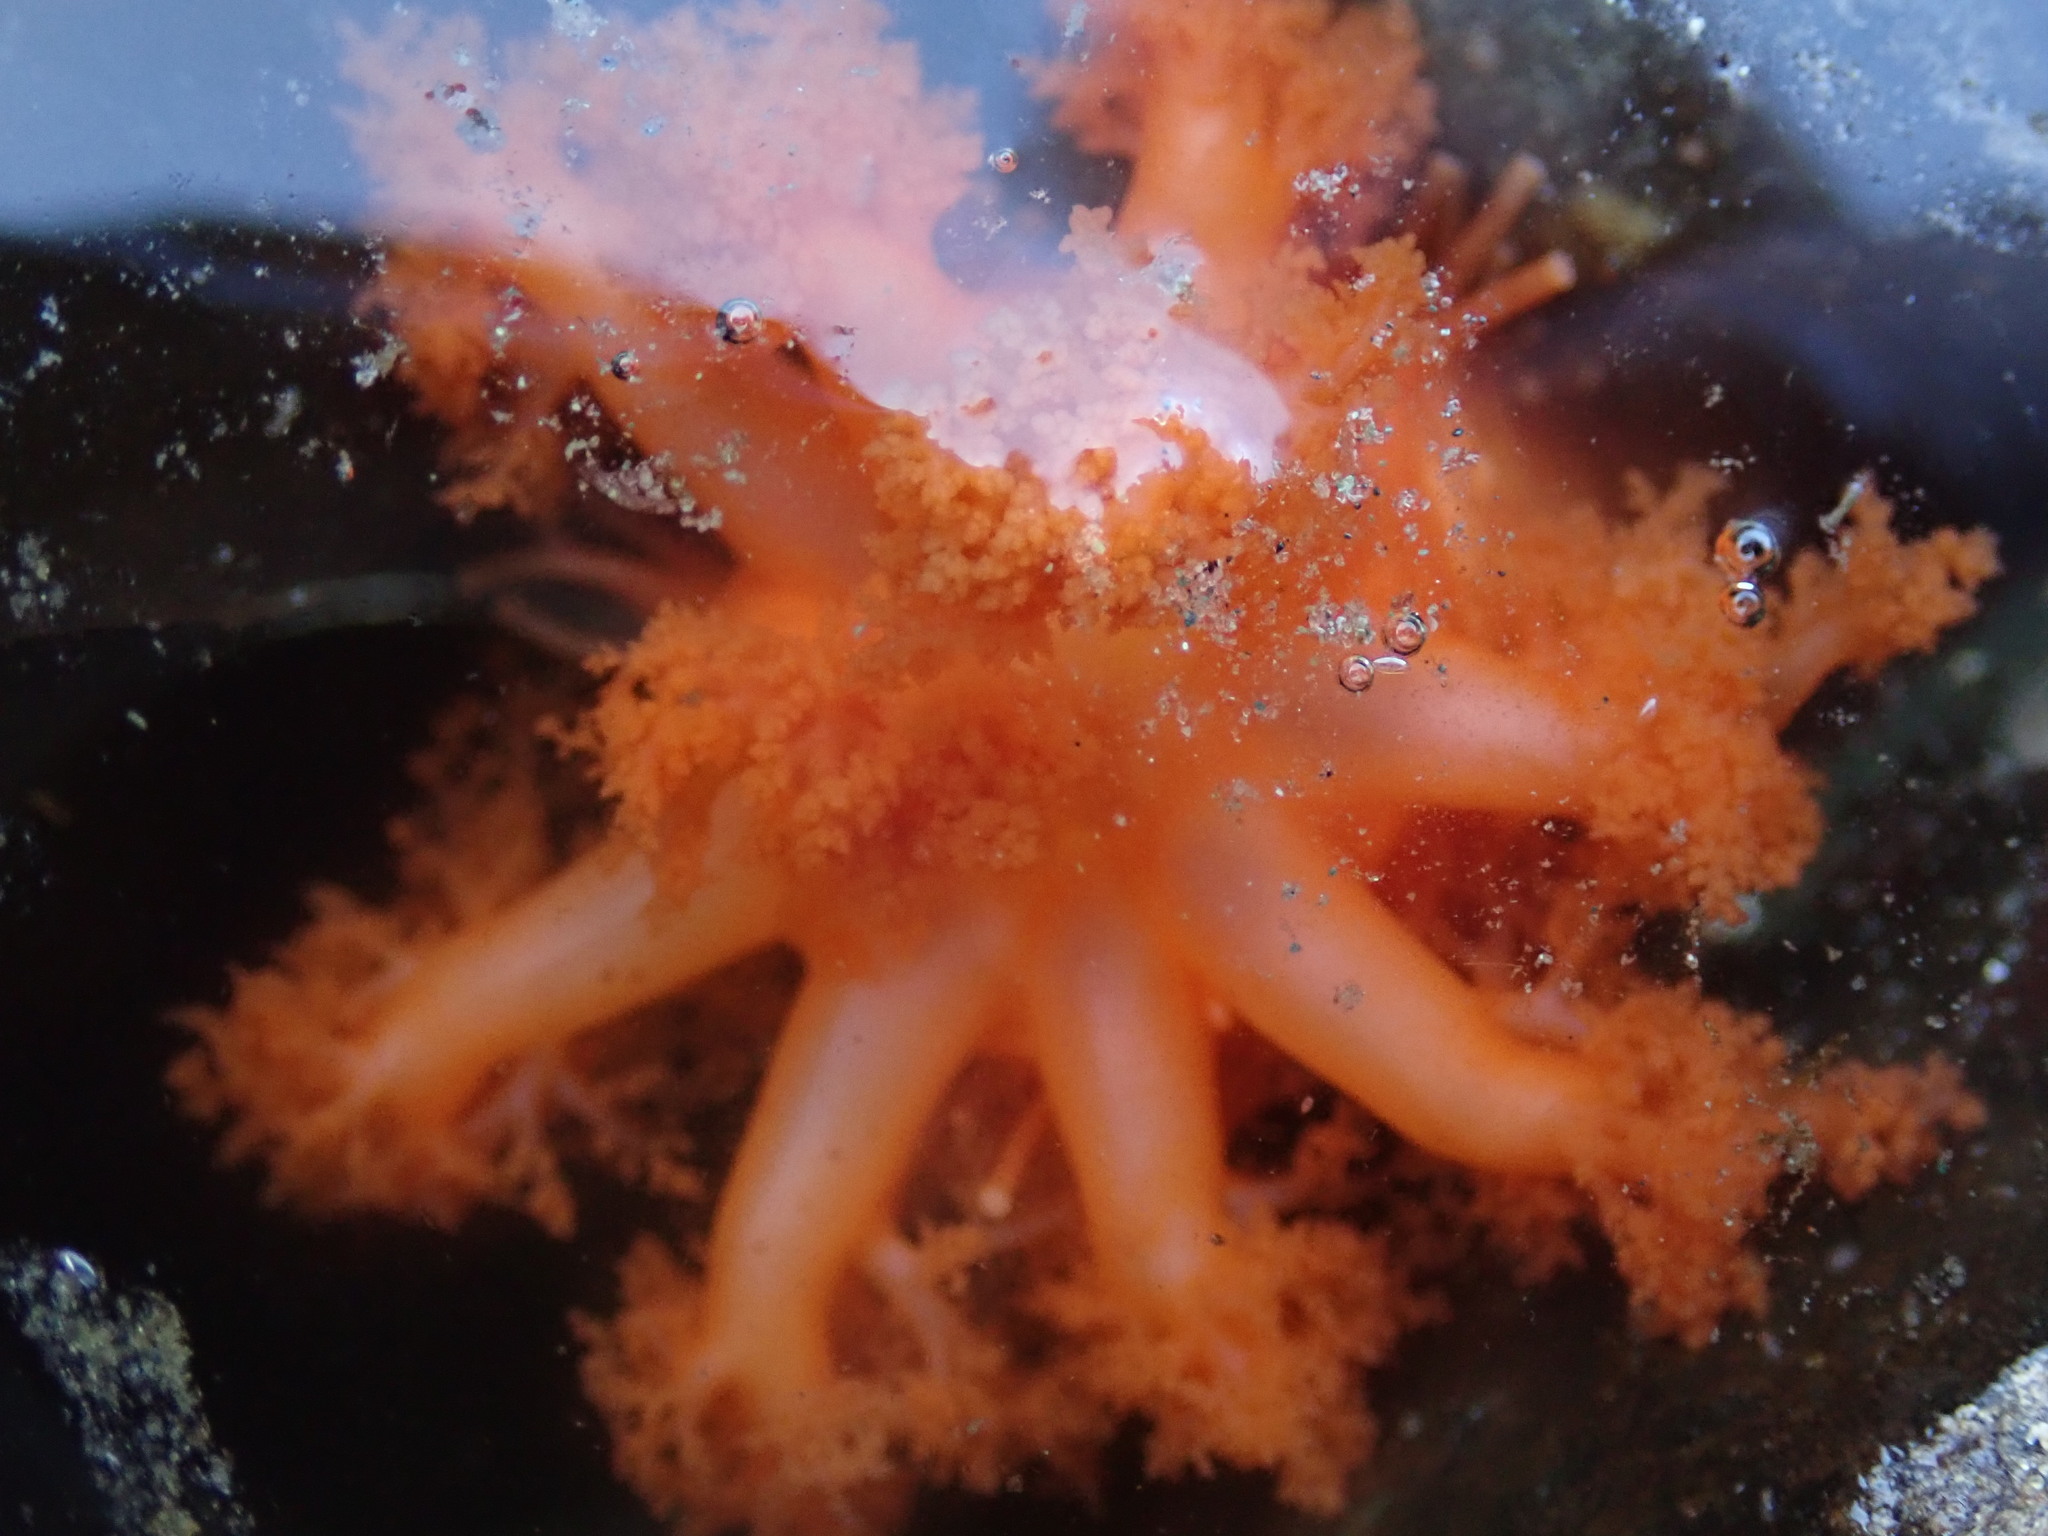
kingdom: Animalia
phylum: Echinodermata
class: Holothuroidea
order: Dendrochirotida
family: Cucumariidae
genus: Cucumaria
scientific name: Cucumaria miniata
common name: Orange sea cucumber
